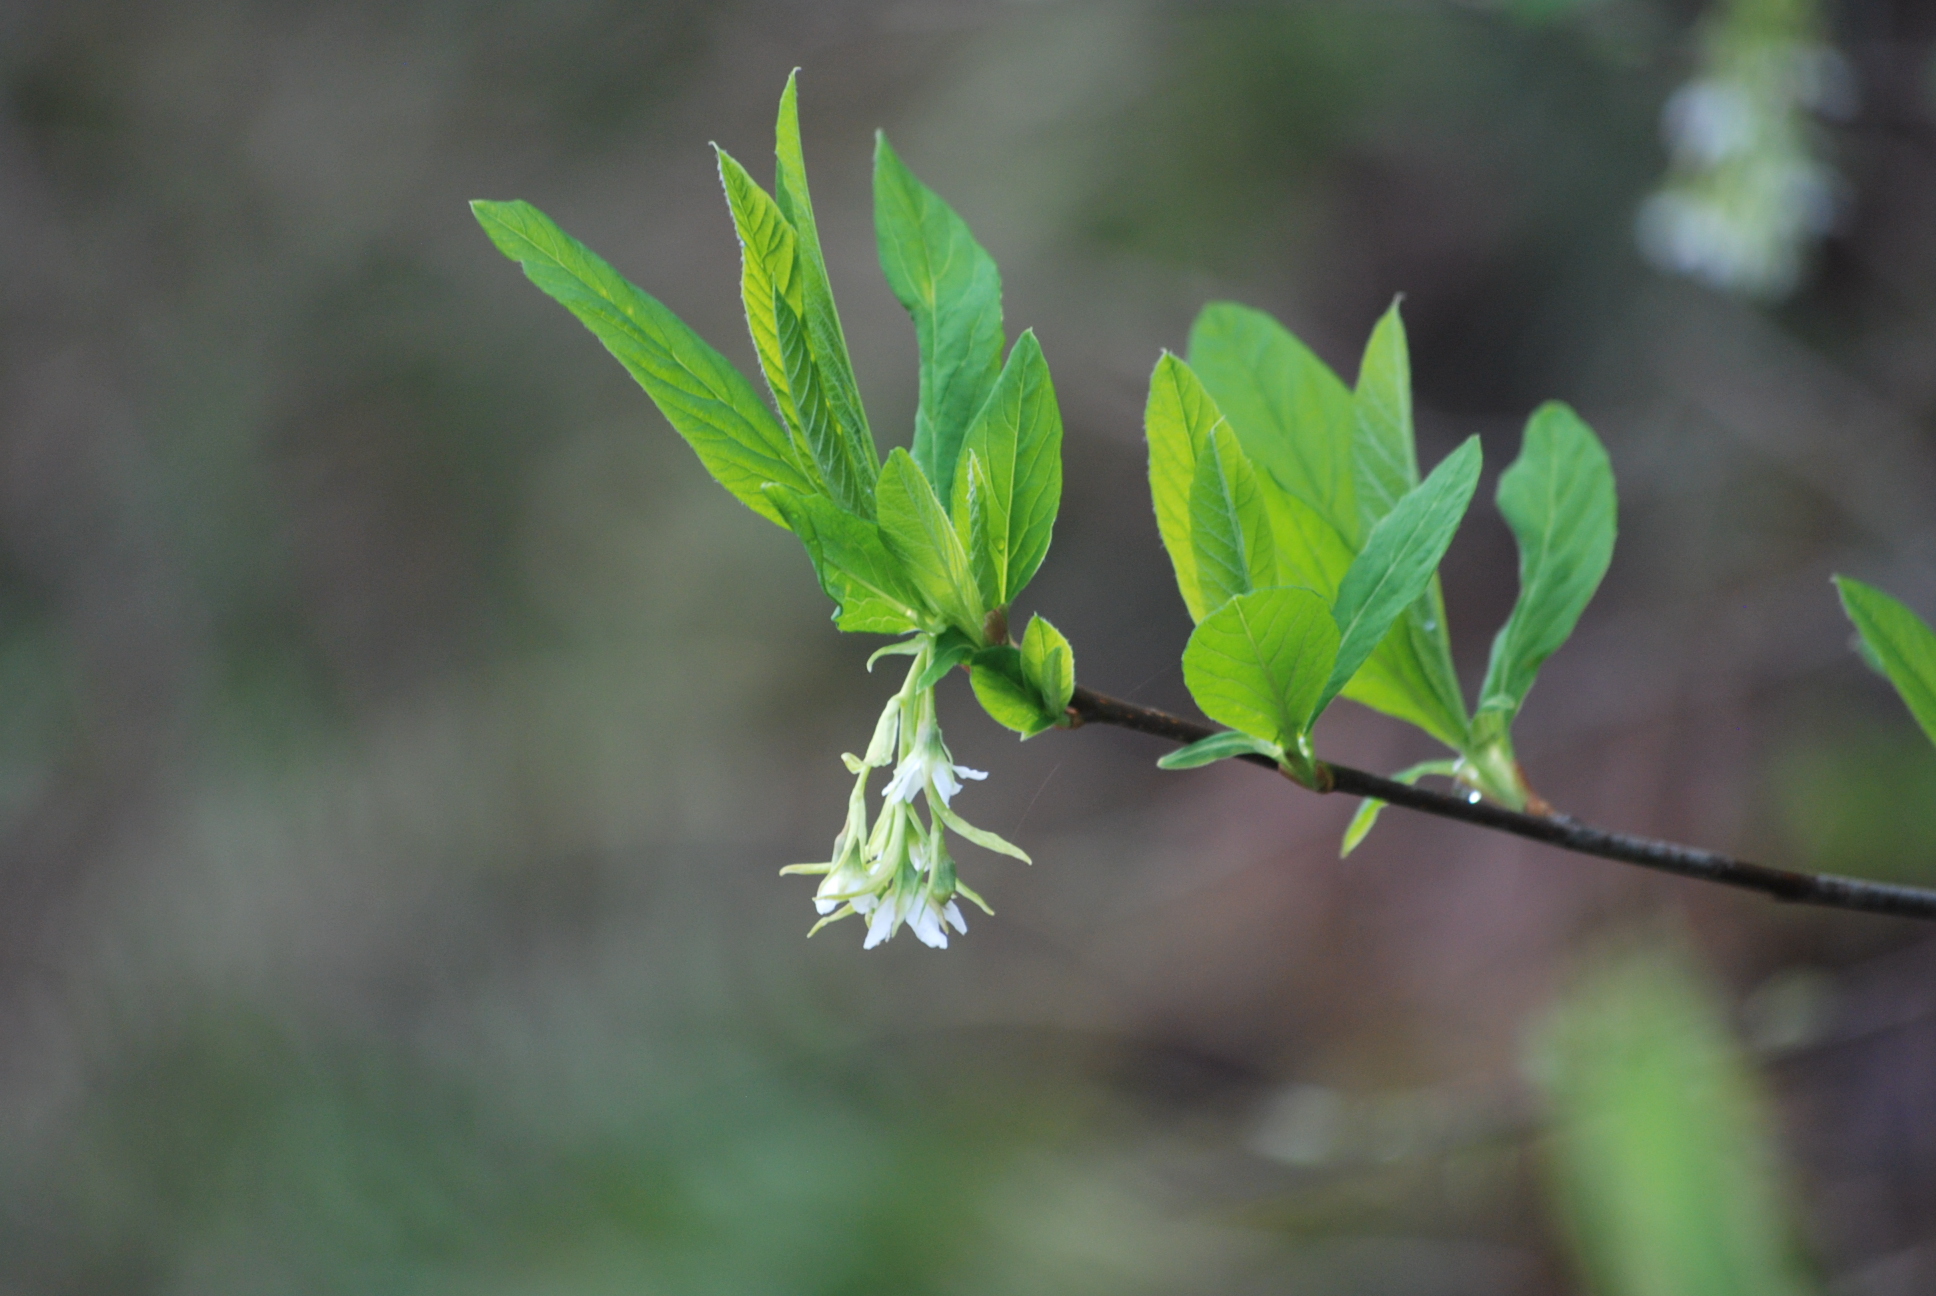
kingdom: Plantae
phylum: Tracheophyta
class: Magnoliopsida
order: Rosales
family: Rosaceae
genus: Oemleria
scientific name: Oemleria cerasiformis
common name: Osoberry
